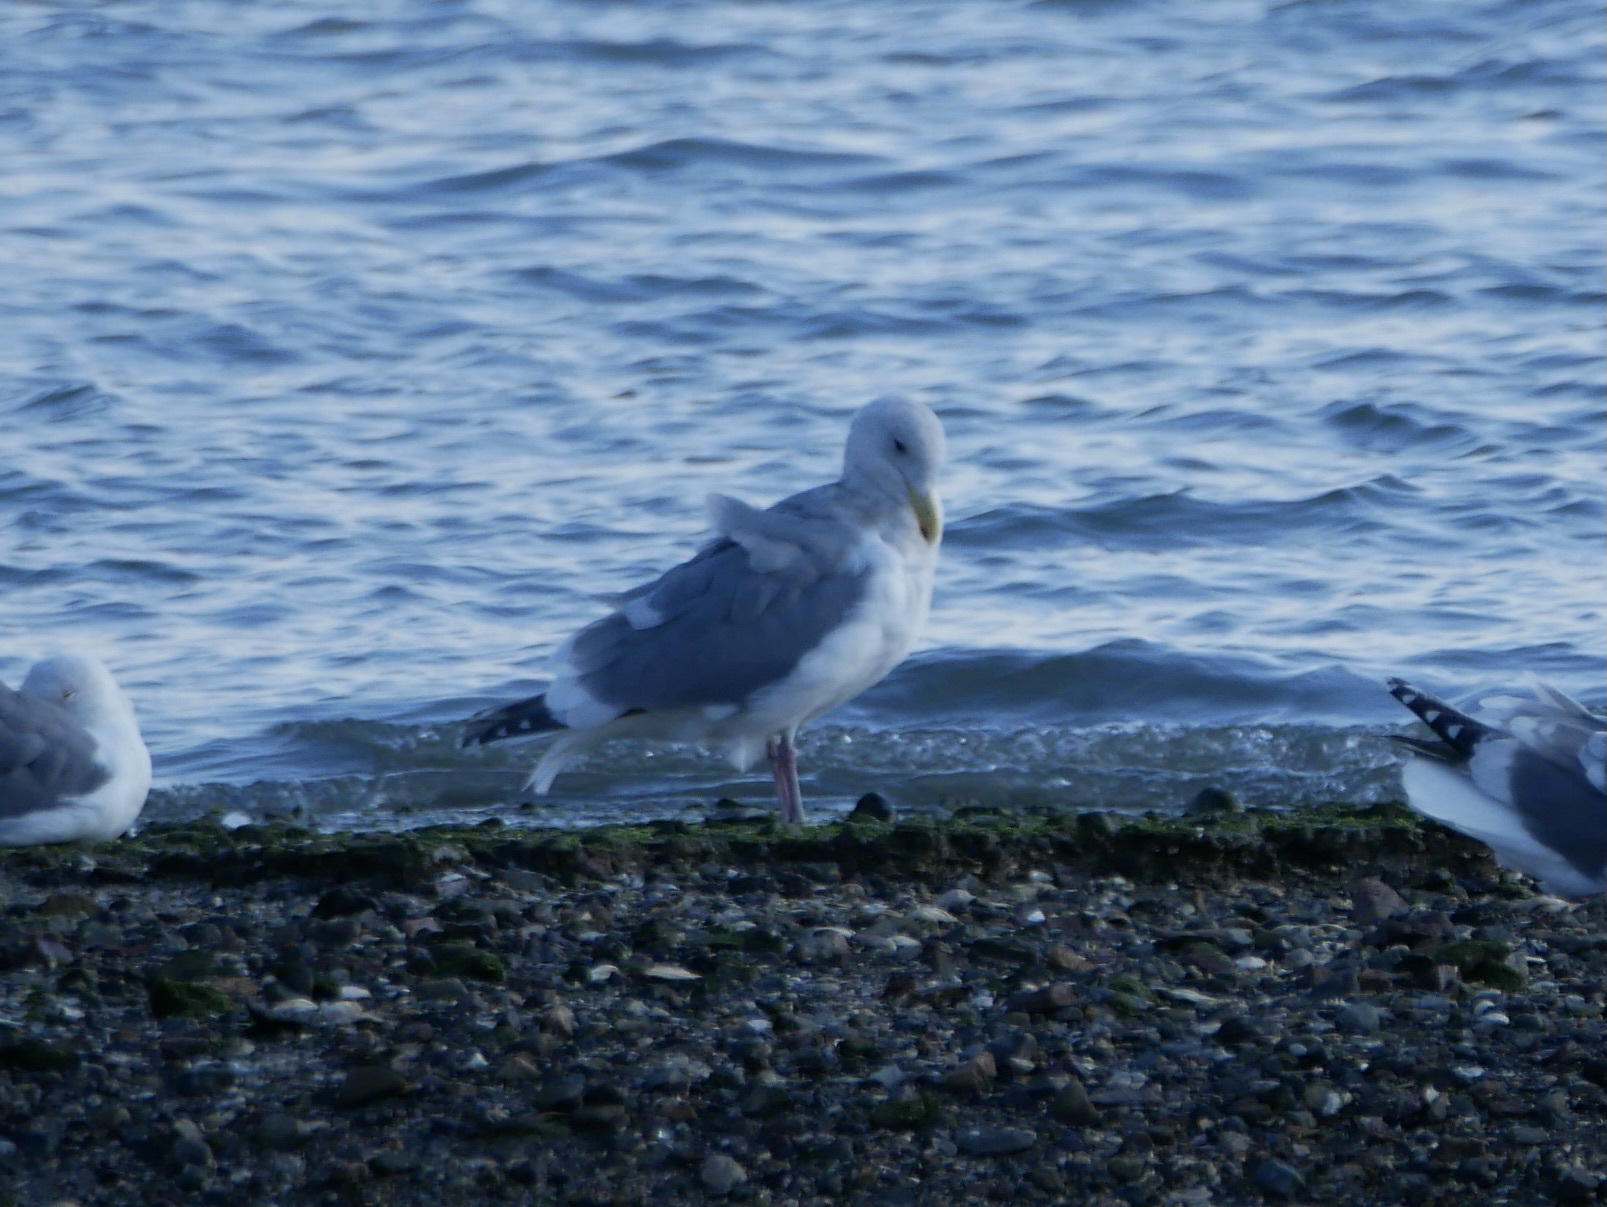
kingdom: Animalia
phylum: Chordata
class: Aves
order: Charadriiformes
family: Laridae
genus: Larus
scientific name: Larus occidentalis
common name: Western gull
